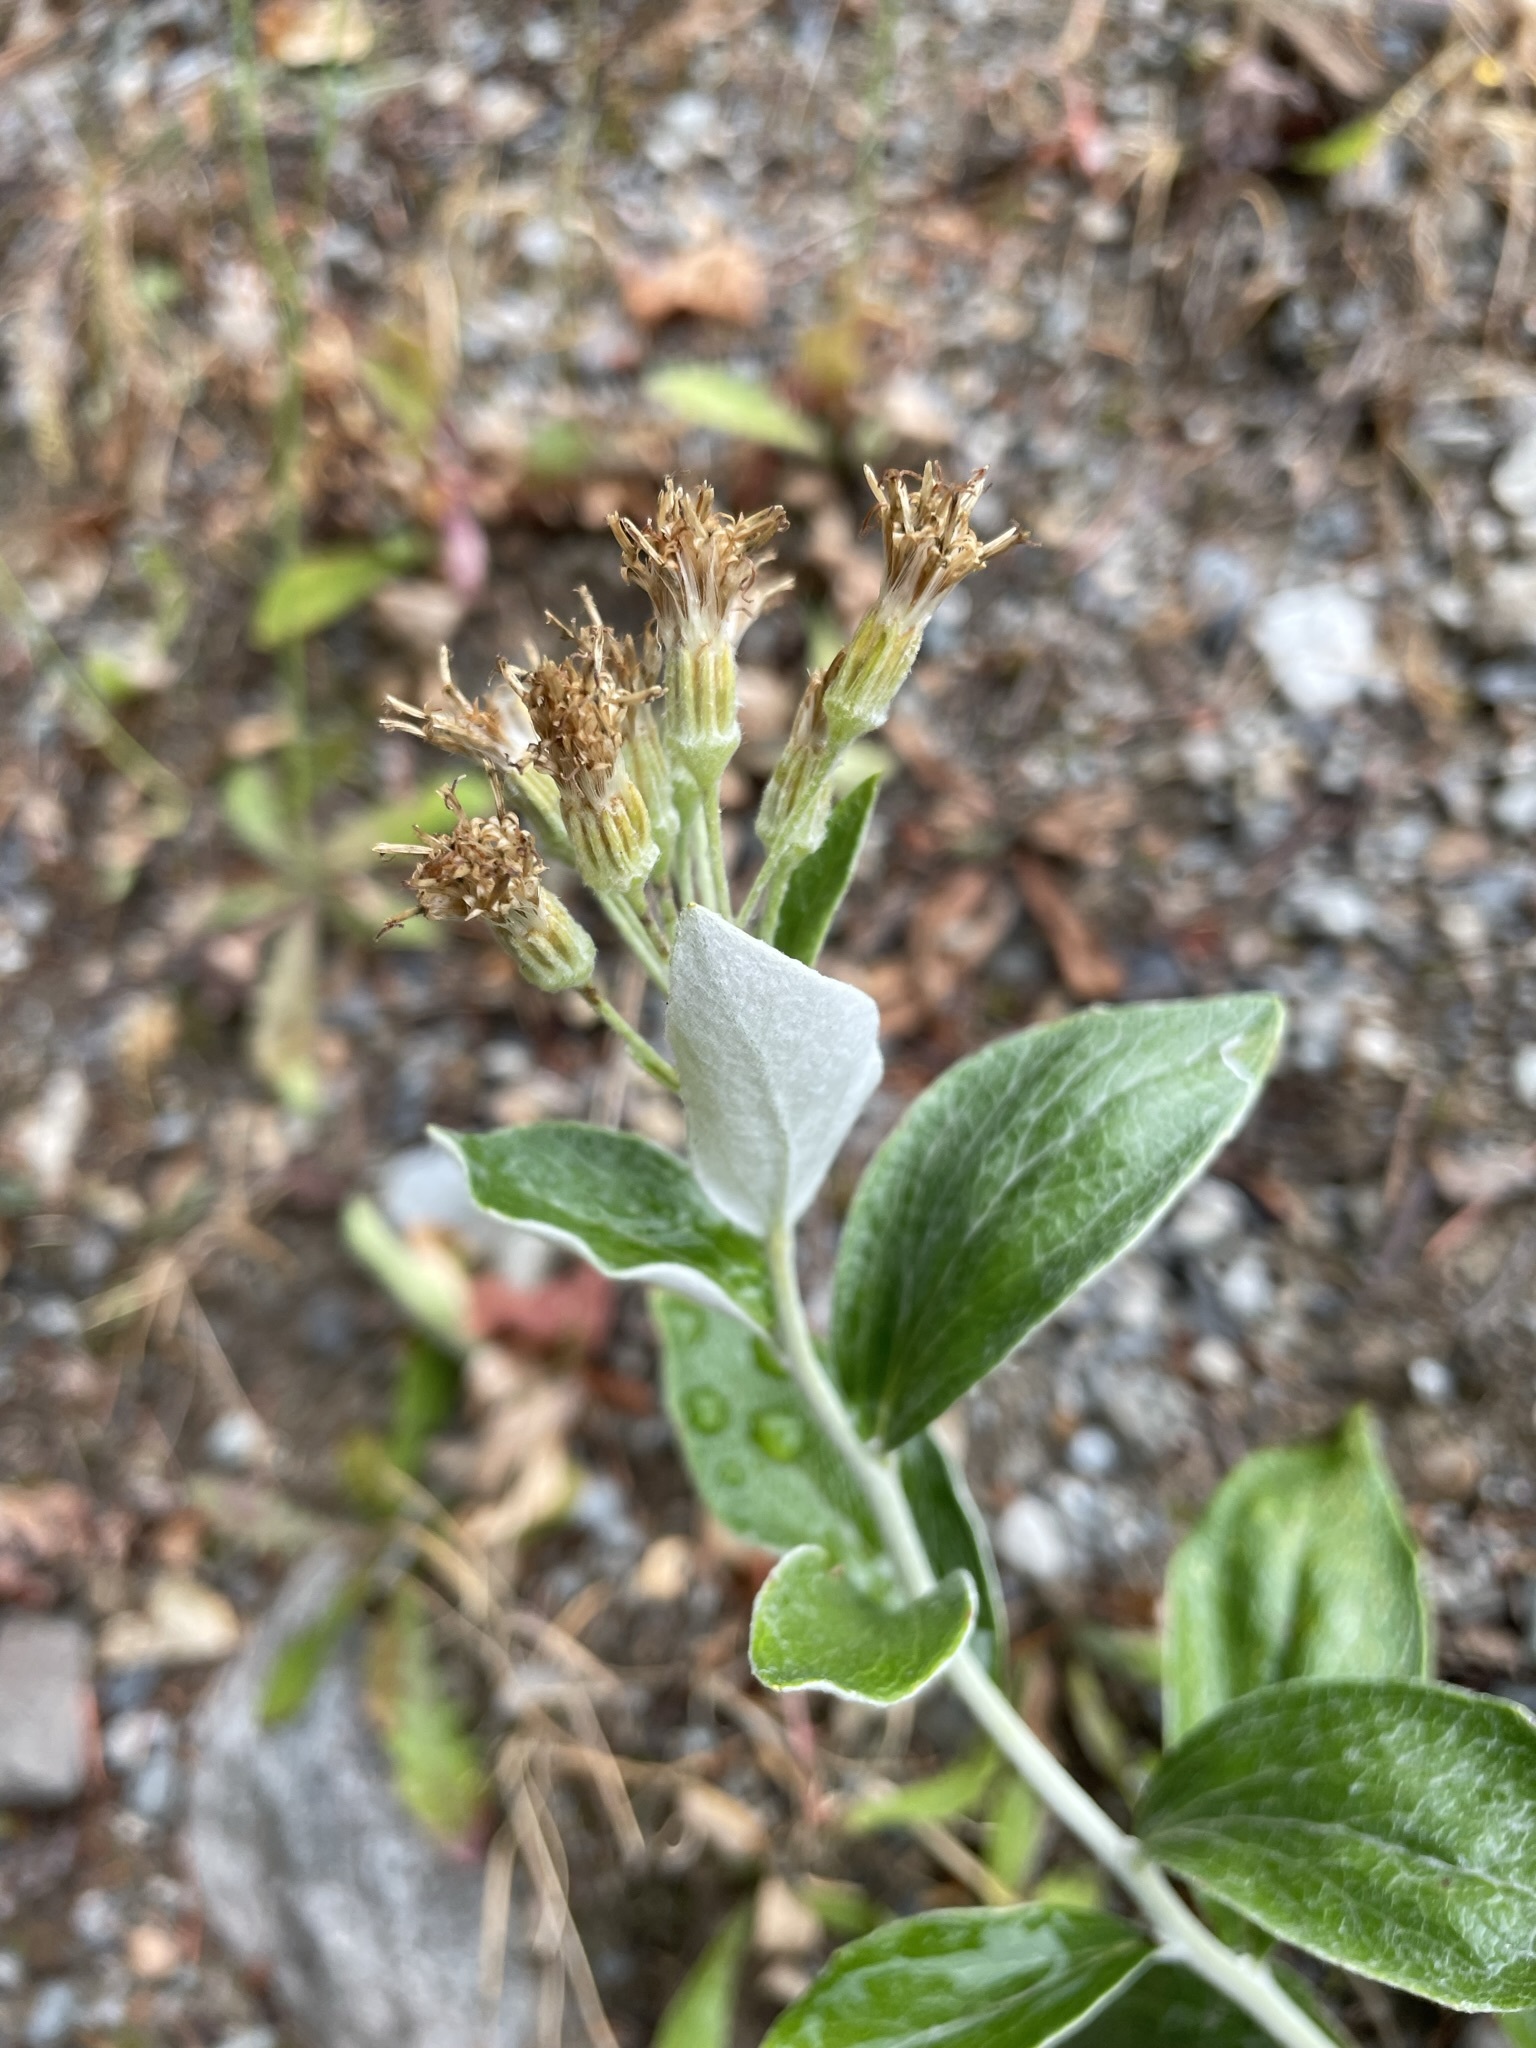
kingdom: Plantae
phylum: Tracheophyta
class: Magnoliopsida
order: Asterales
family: Asteraceae
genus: Luina
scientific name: Luina hypoleuca
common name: Little-leaved luina
